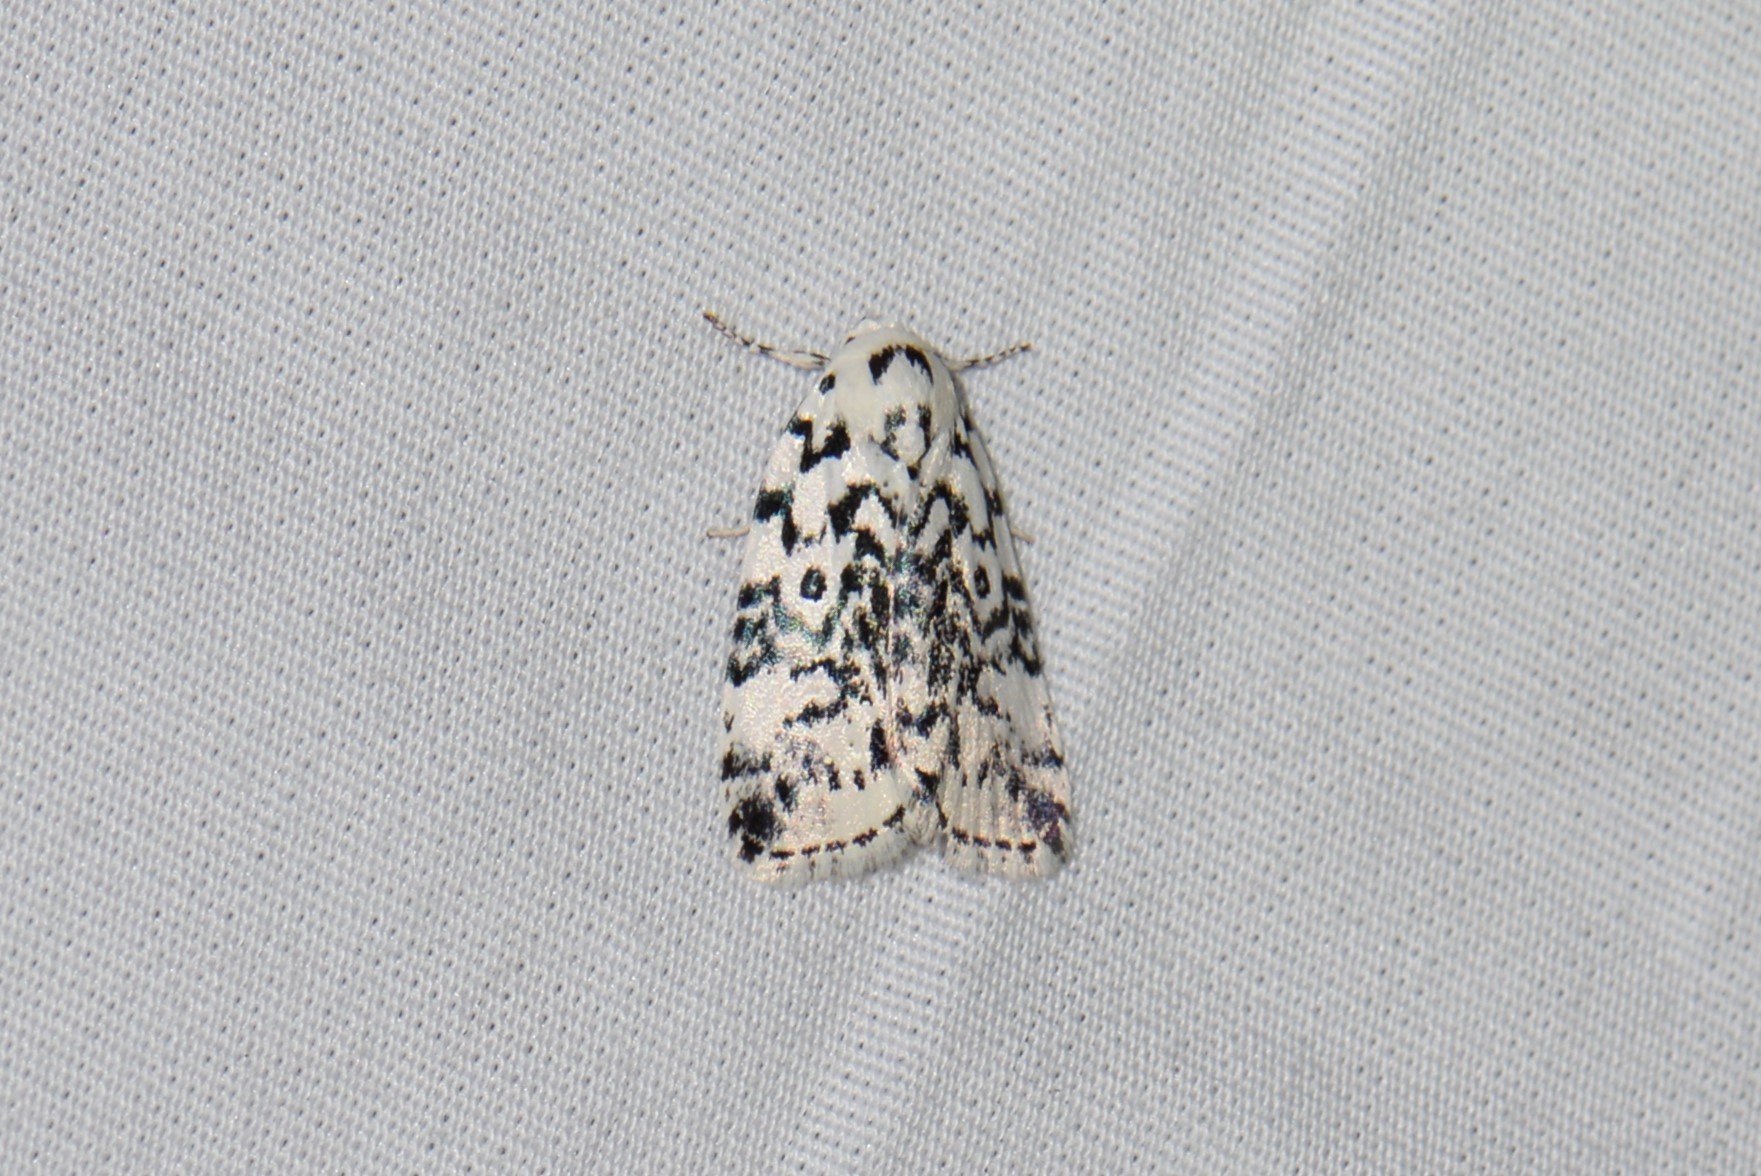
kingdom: Animalia
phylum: Arthropoda
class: Insecta
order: Lepidoptera
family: Noctuidae
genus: Polygrammate
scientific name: Polygrammate hebraeicum
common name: Hebrew moth
